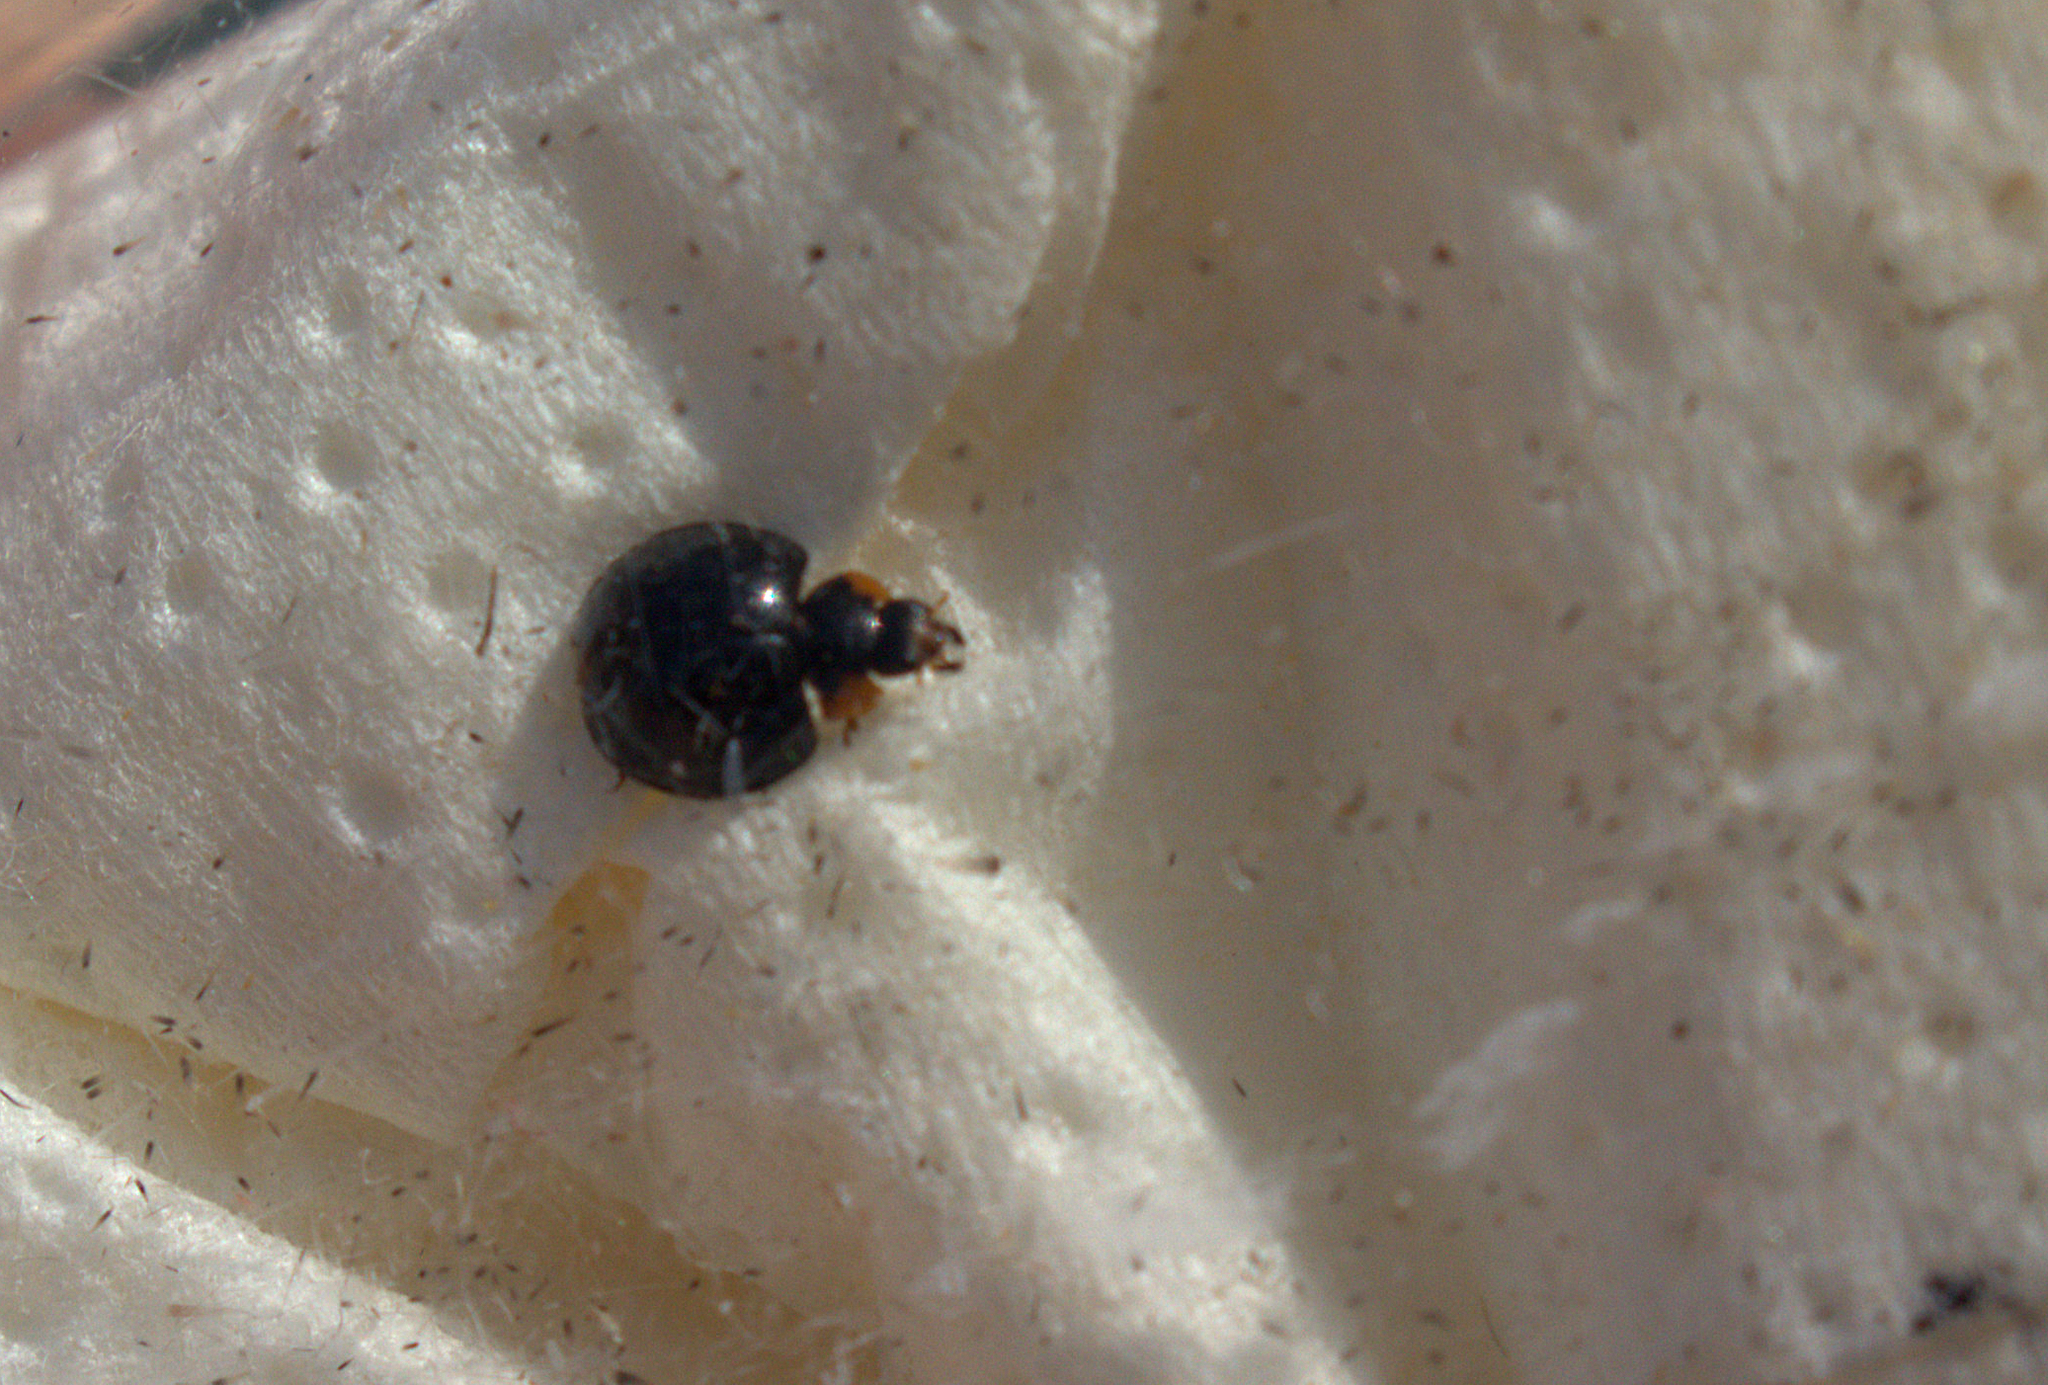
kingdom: Animalia
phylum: Arthropoda
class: Insecta
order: Coleoptera
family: Coccinellidae
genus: Parexochomus
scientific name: Parexochomus nigromaculatus
